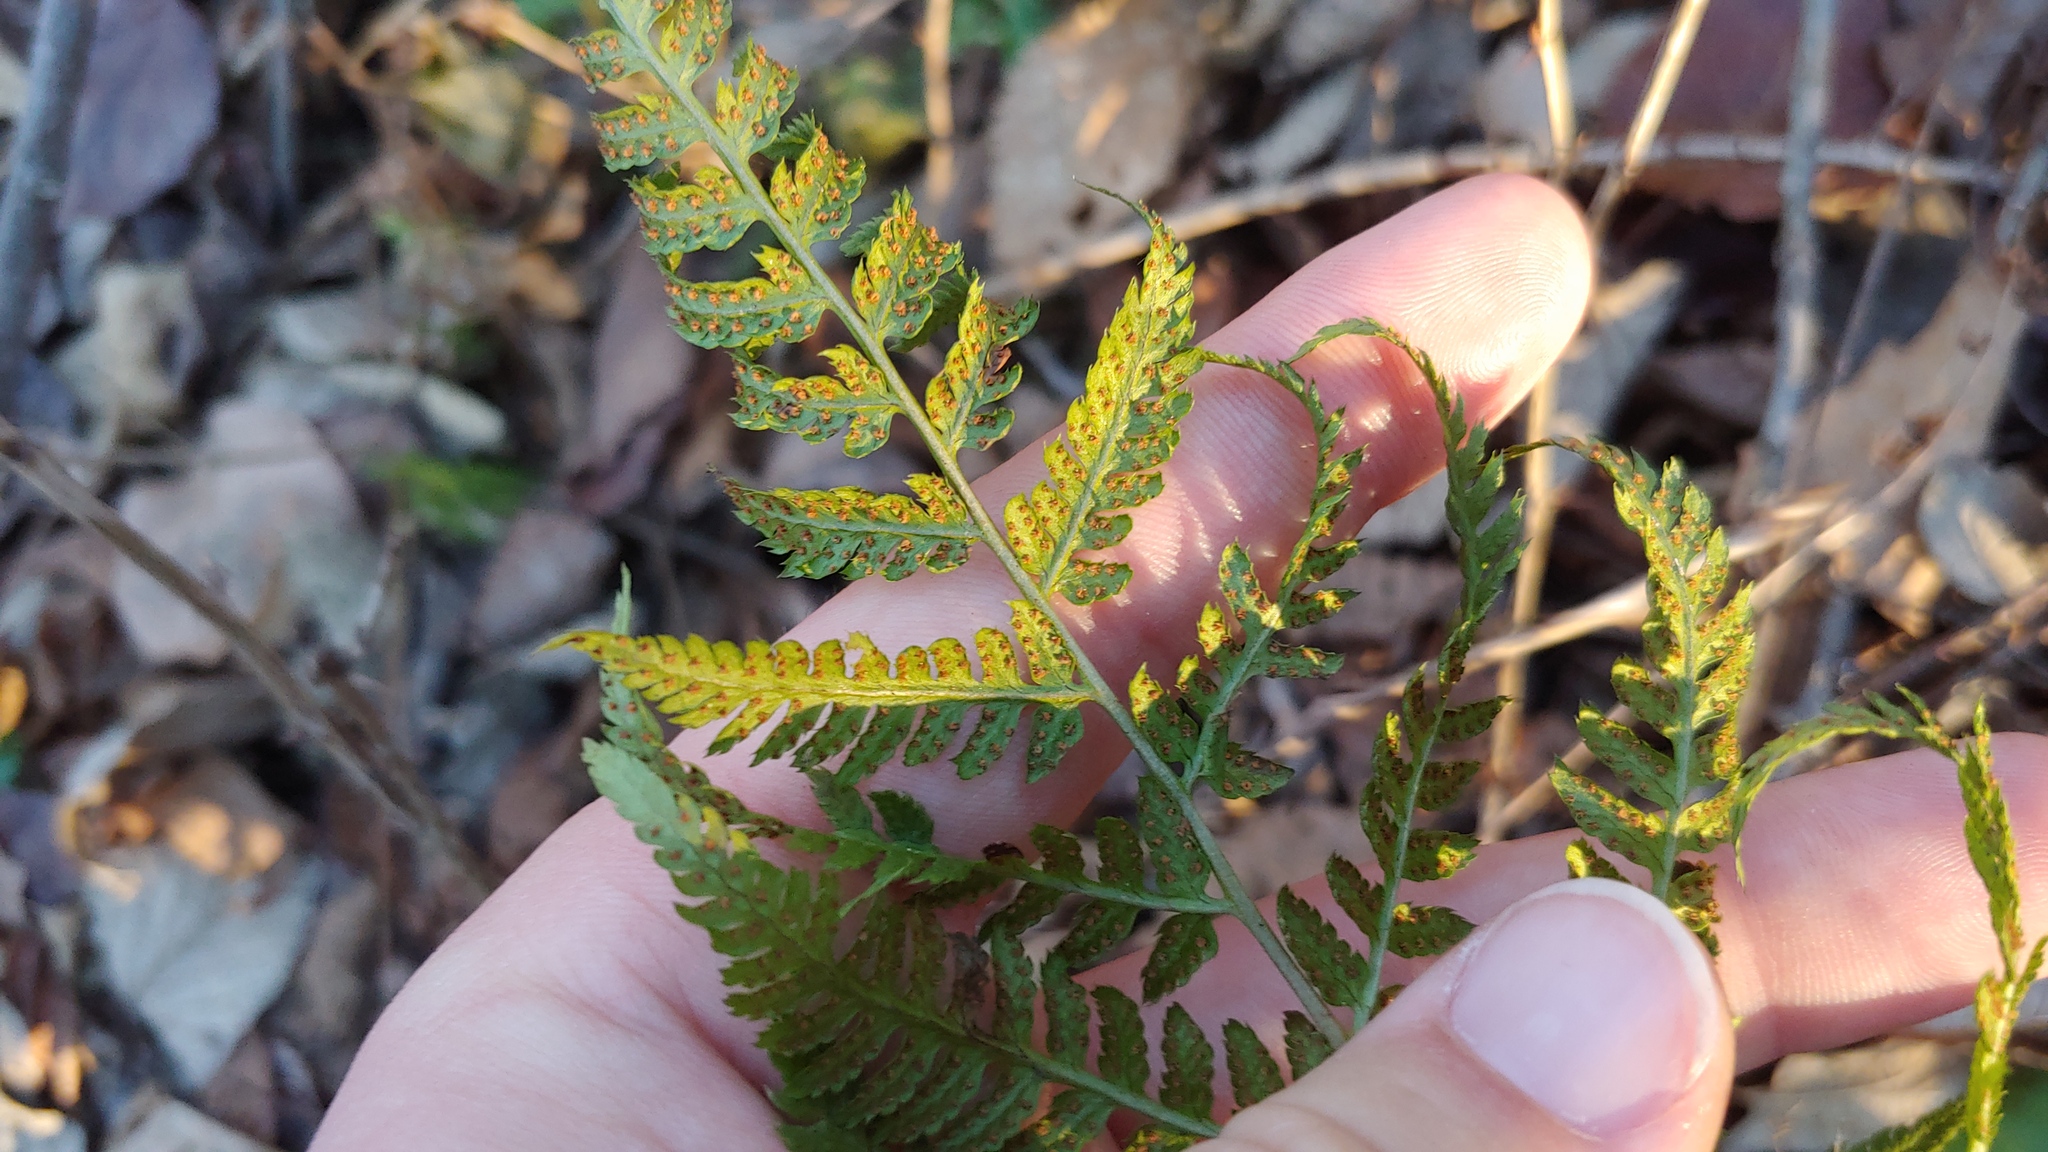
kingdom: Plantae
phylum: Tracheophyta
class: Polypodiopsida
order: Polypodiales
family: Dryopteridaceae
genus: Dryopteris
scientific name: Dryopteris carthusiana
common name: Narrow buckler-fern
